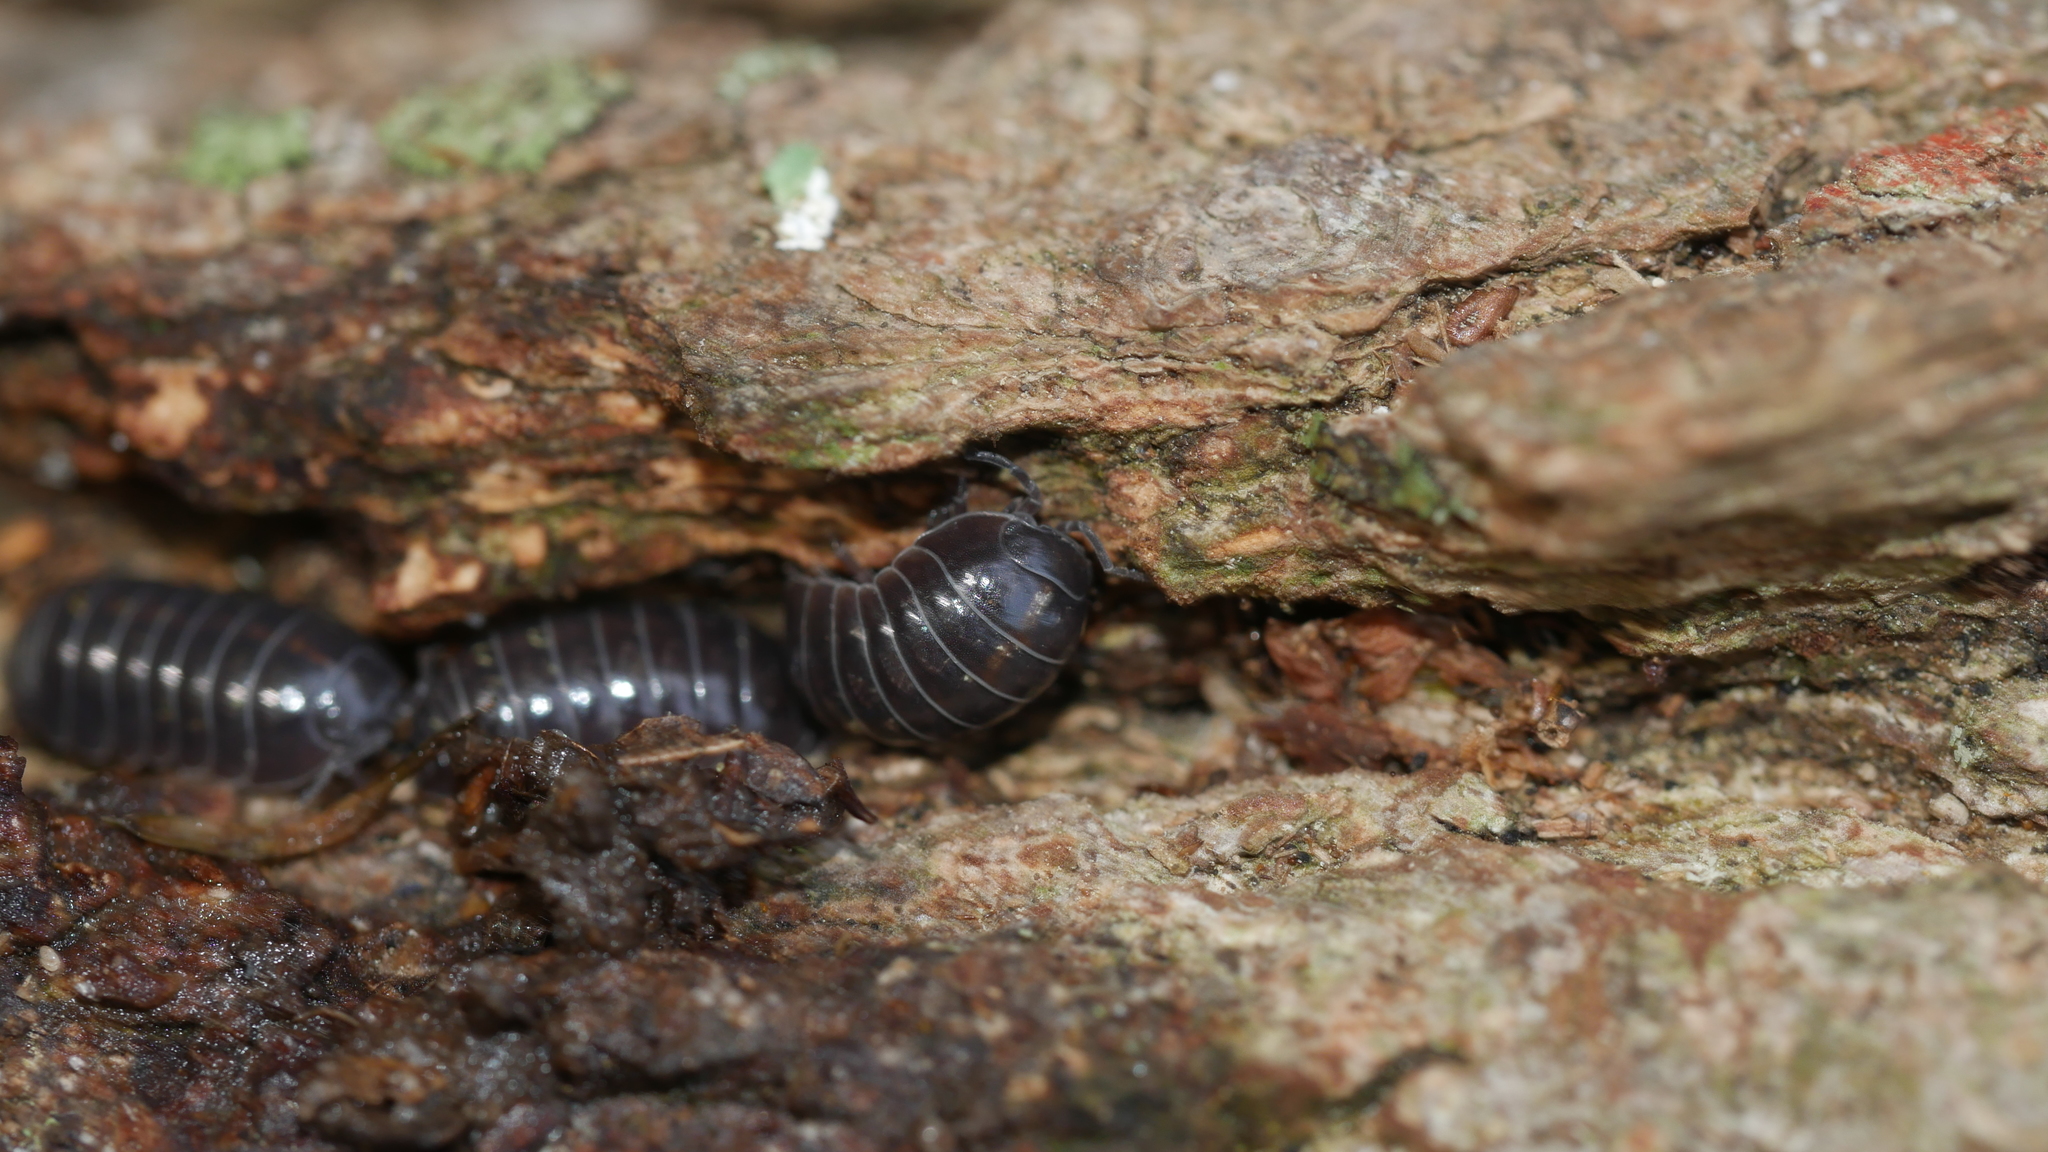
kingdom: Animalia
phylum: Arthropoda
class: Malacostraca
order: Isopoda
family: Armadillidiidae
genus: Armadillidium
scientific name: Armadillidium vulgare
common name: Common pill woodlouse
